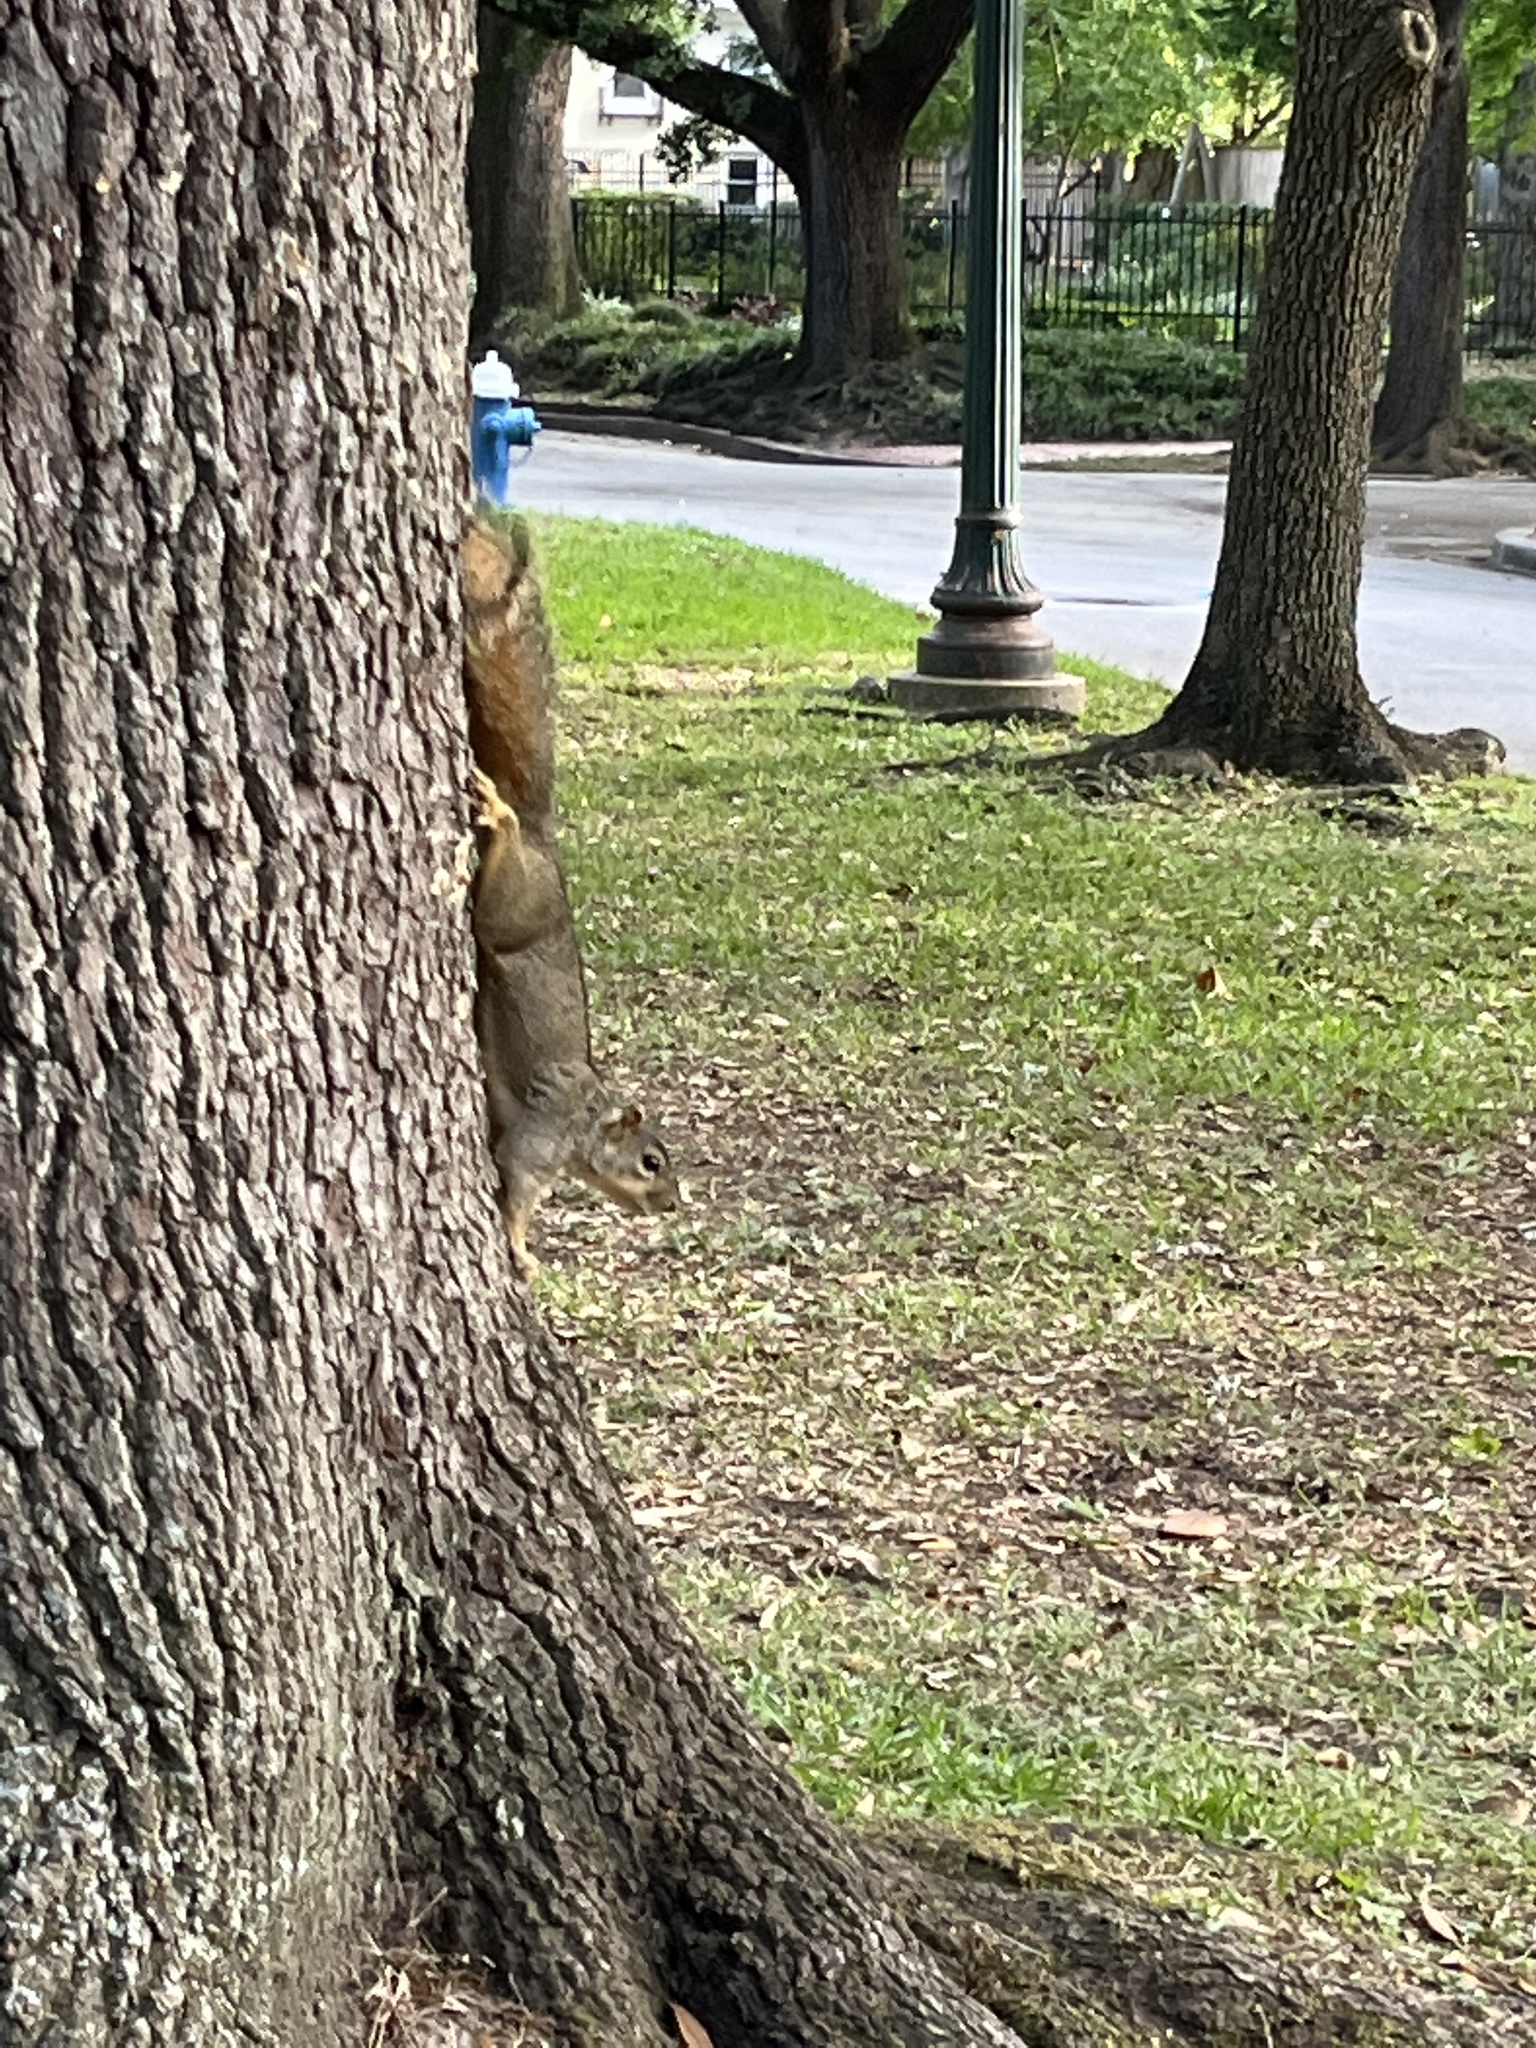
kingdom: Animalia
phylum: Chordata
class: Mammalia
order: Rodentia
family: Sciuridae
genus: Sciurus
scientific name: Sciurus niger
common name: Fox squirrel
